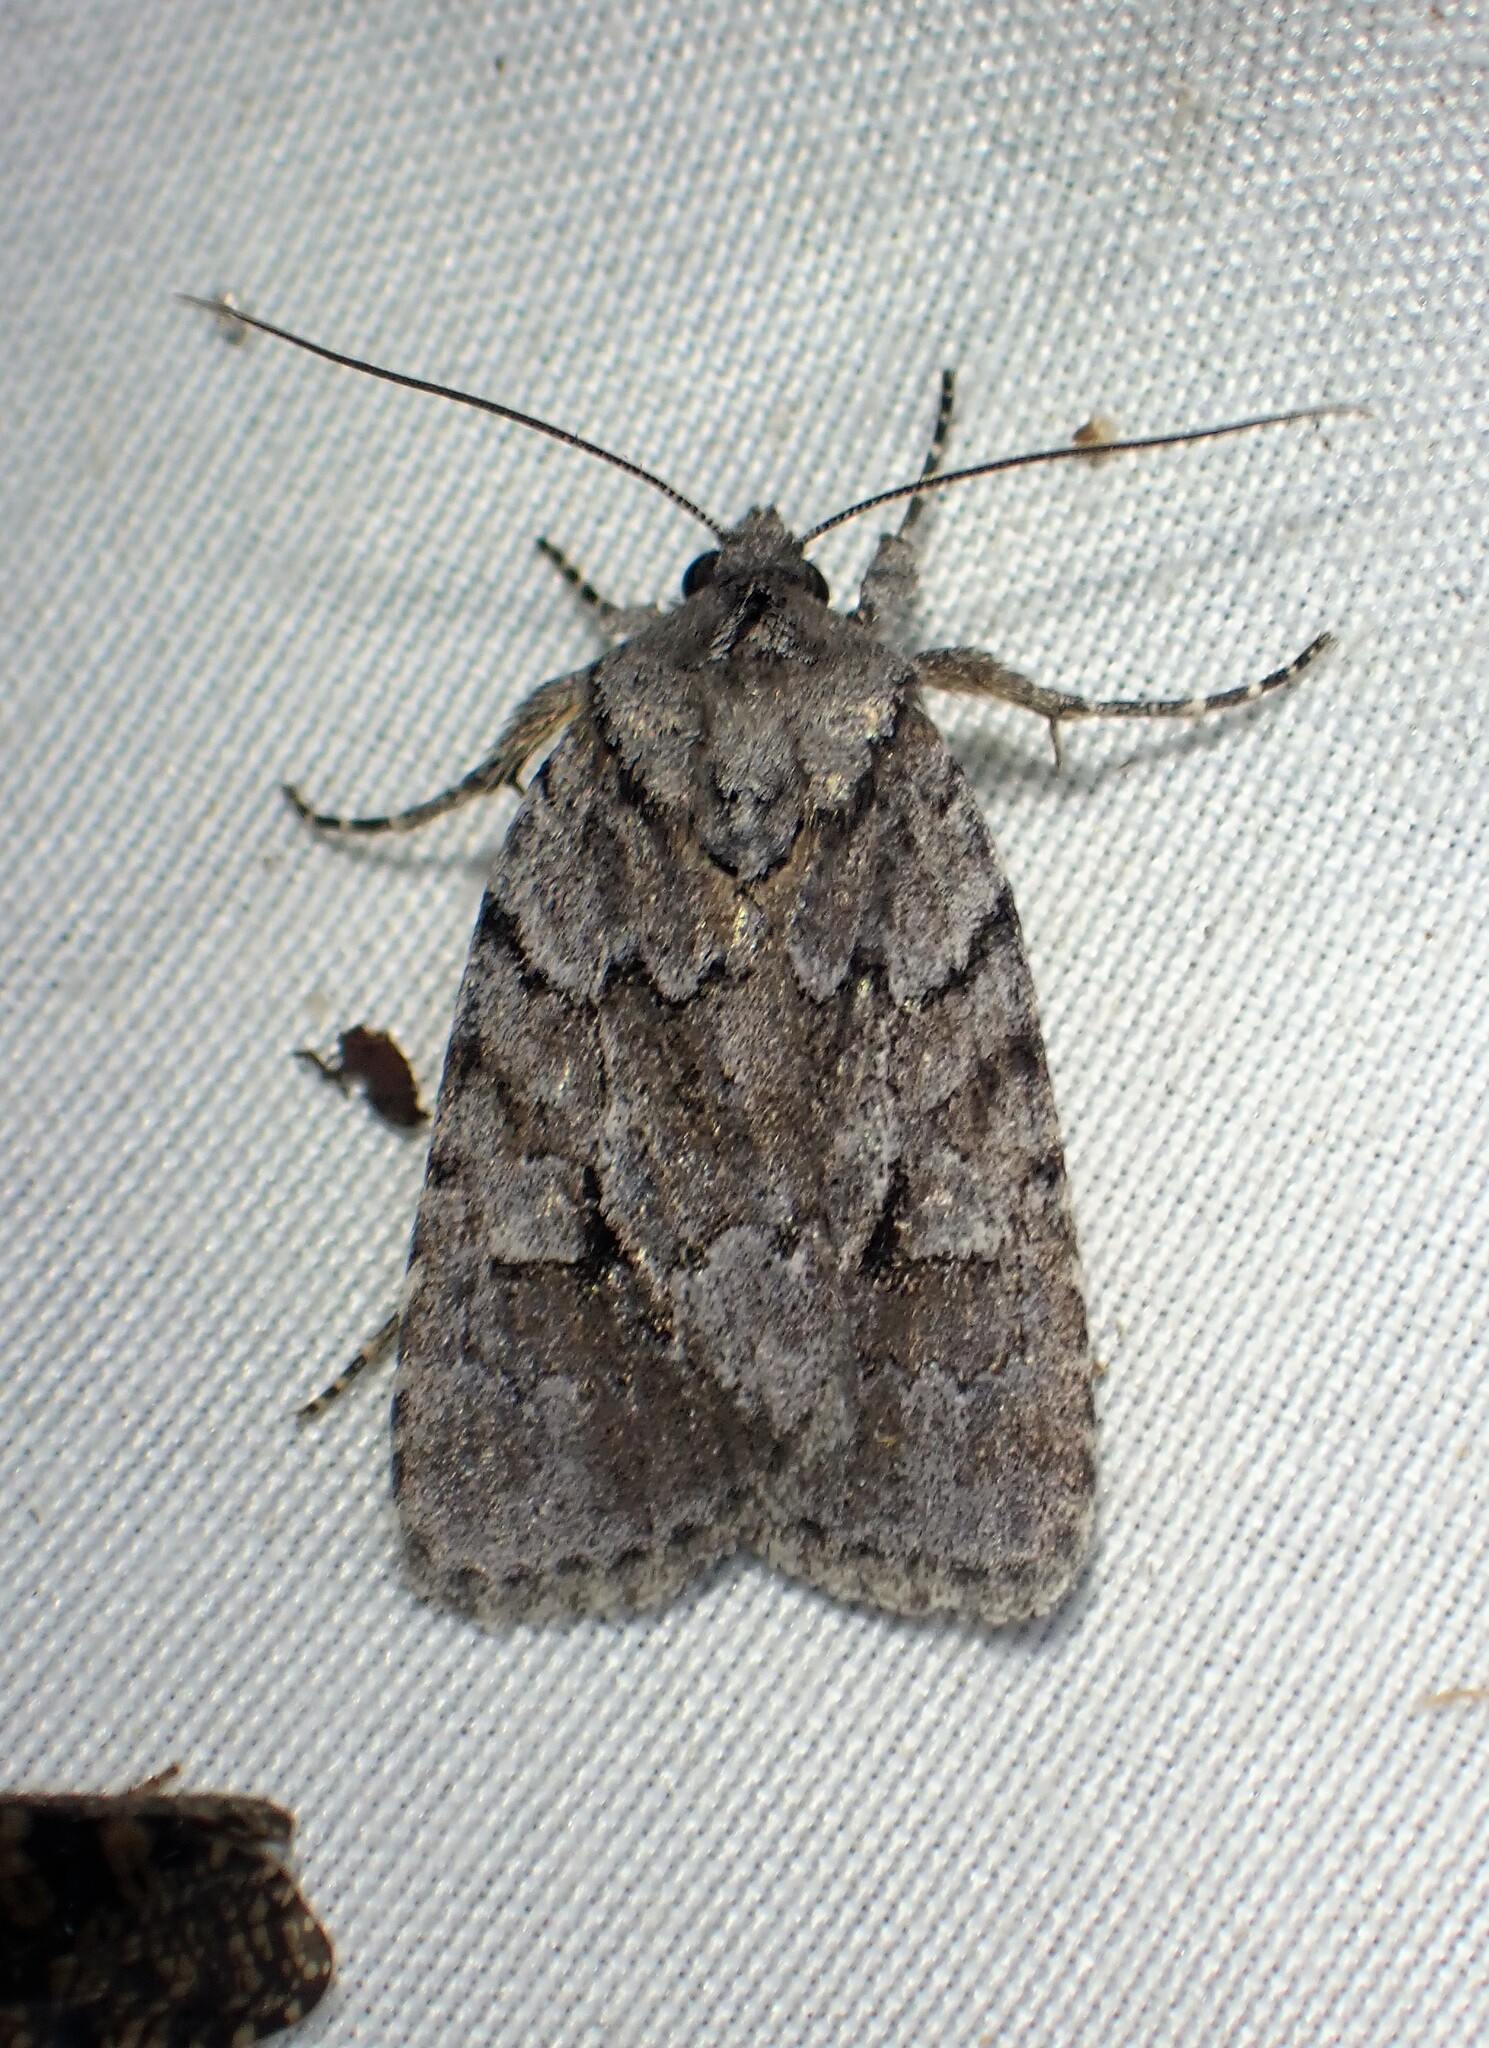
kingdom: Animalia
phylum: Arthropoda
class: Insecta
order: Lepidoptera
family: Noctuidae
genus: Sympistis
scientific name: Sympistis dentata
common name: Blueberry sallow
